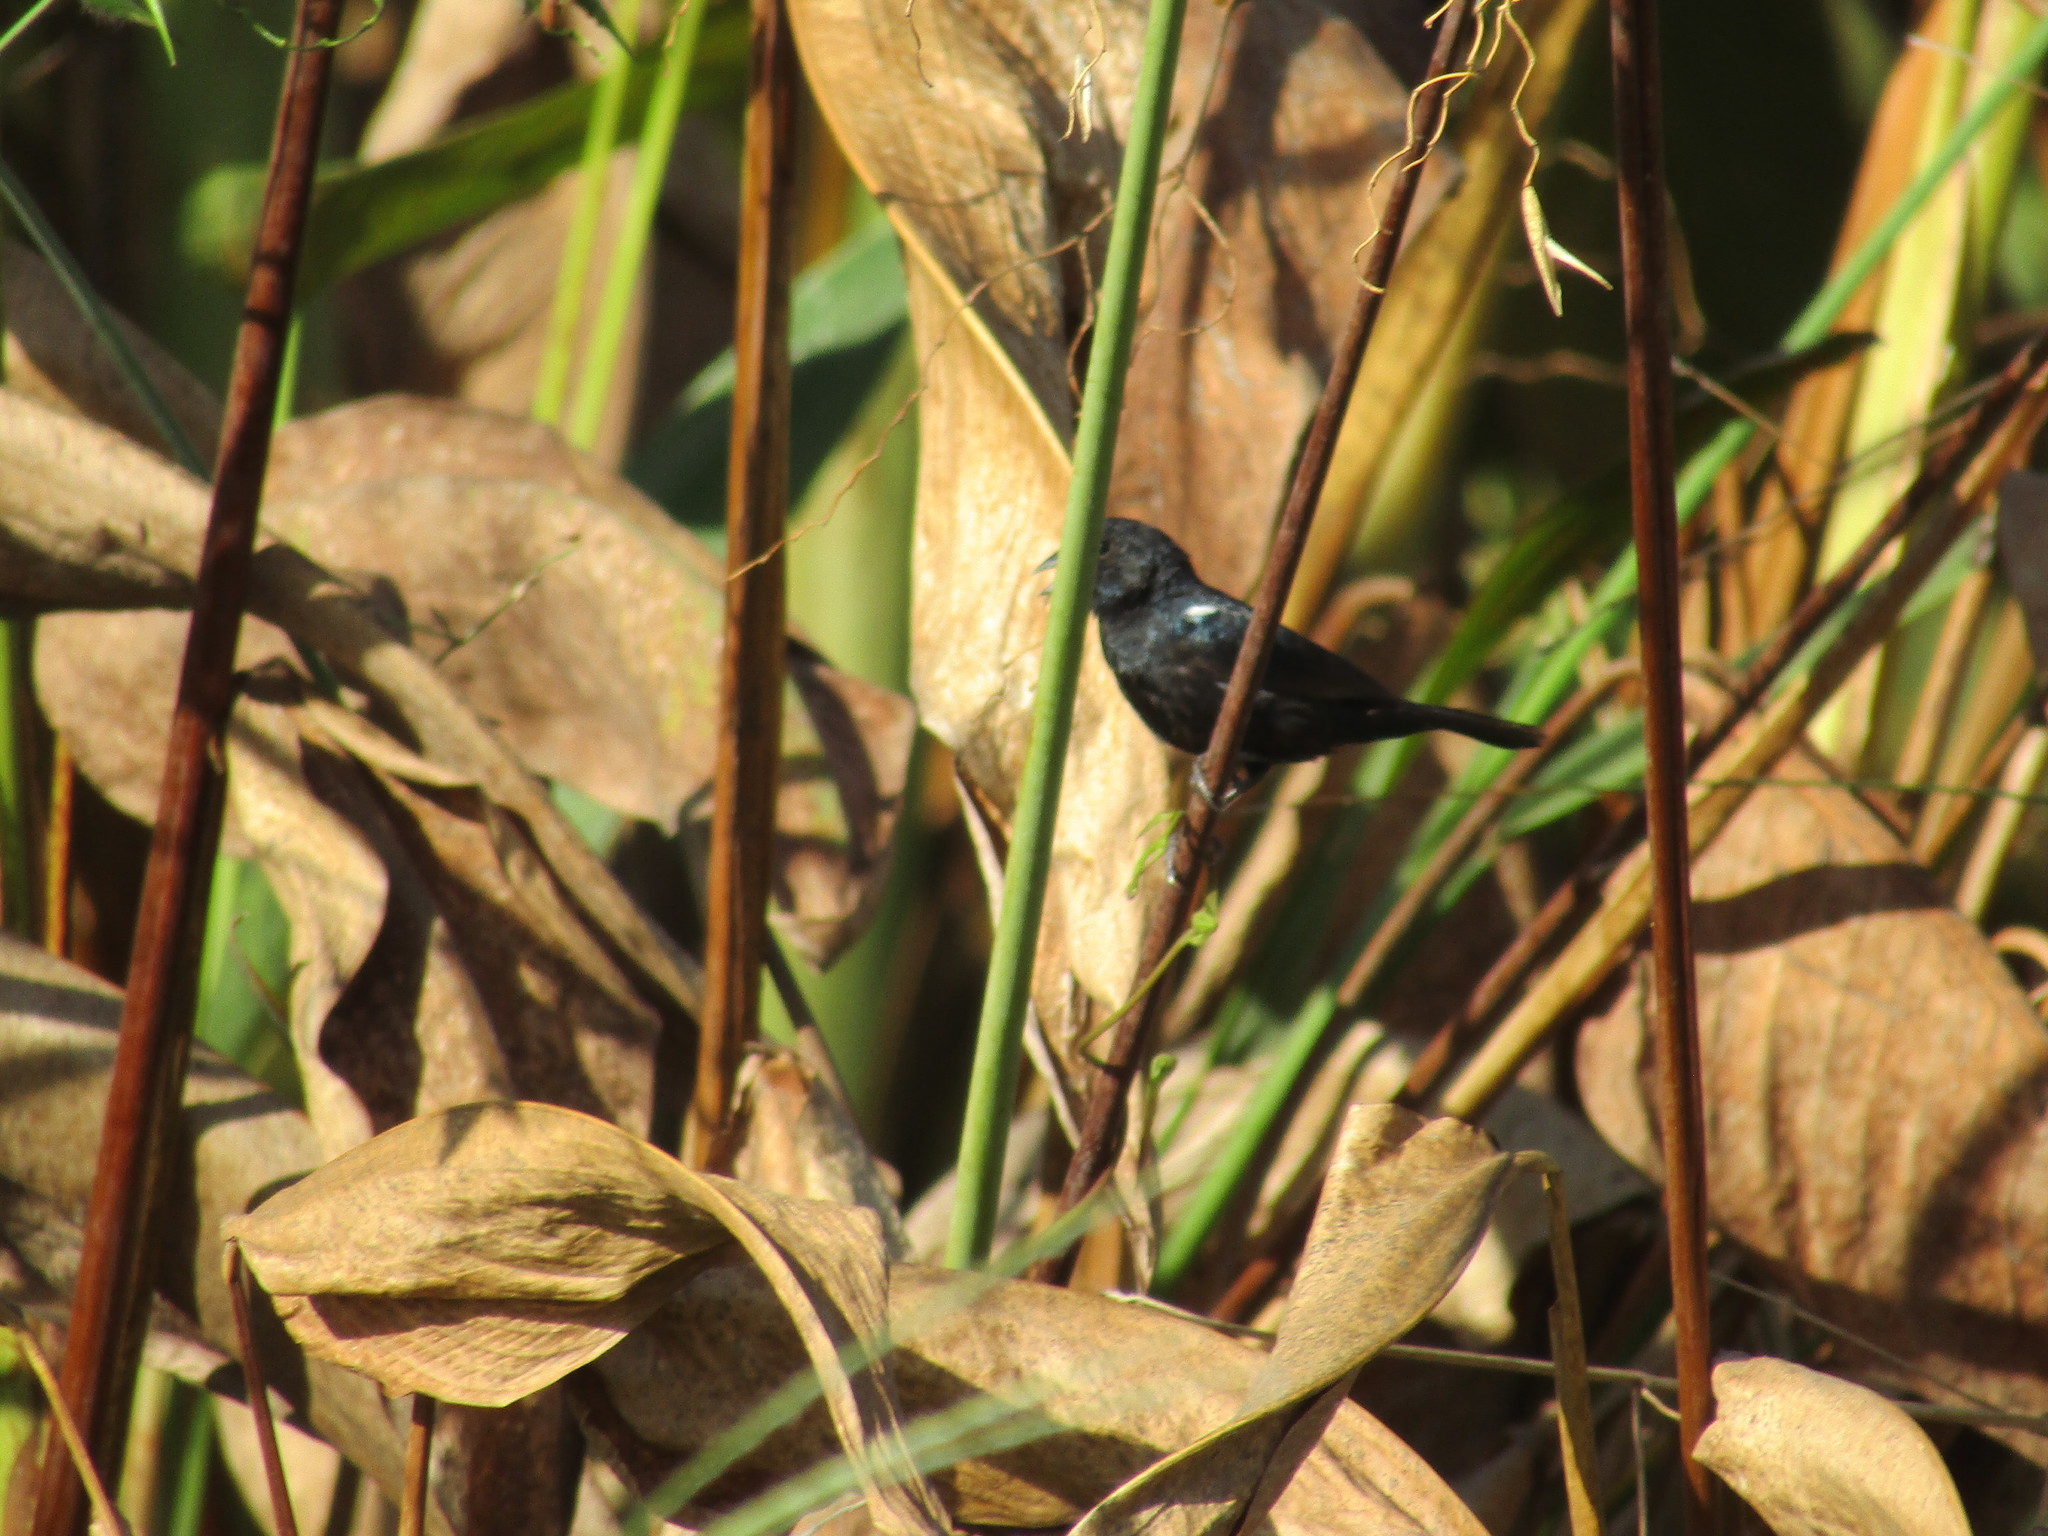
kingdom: Animalia
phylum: Chordata
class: Aves
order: Passeriformes
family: Thraupidae
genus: Volatinia
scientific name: Volatinia jacarina
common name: Blue-black grassquit
